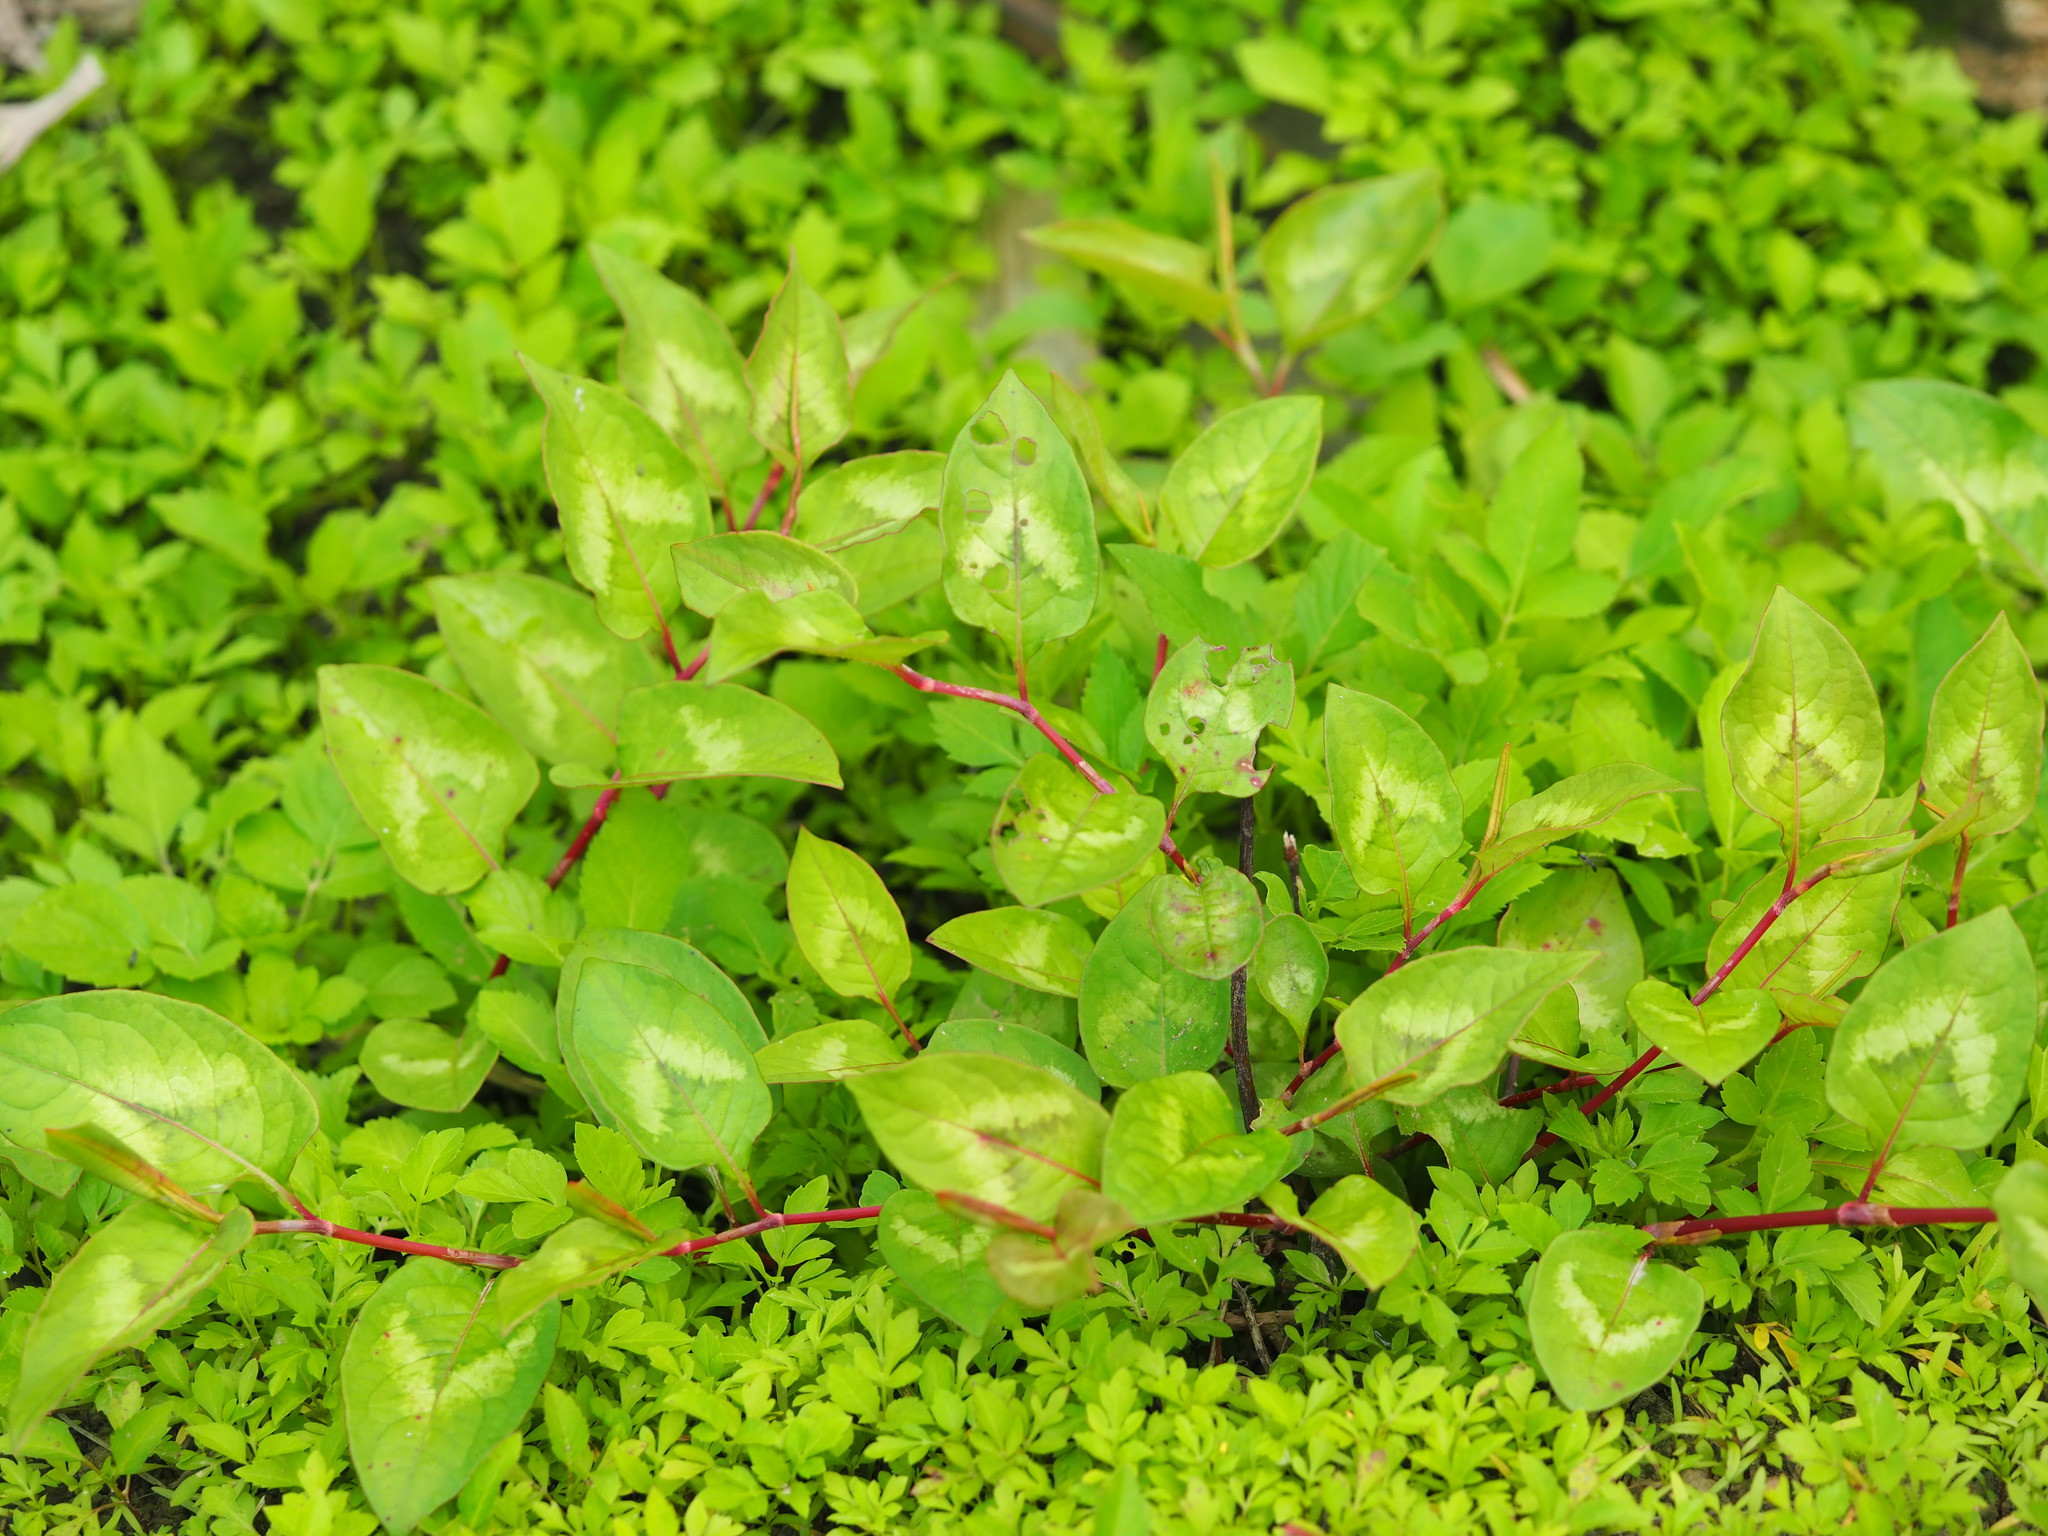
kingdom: Plantae
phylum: Tracheophyta
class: Magnoliopsida
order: Caryophyllales
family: Polygonaceae
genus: Persicaria
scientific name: Persicaria chinensis
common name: Chinese knotweed
